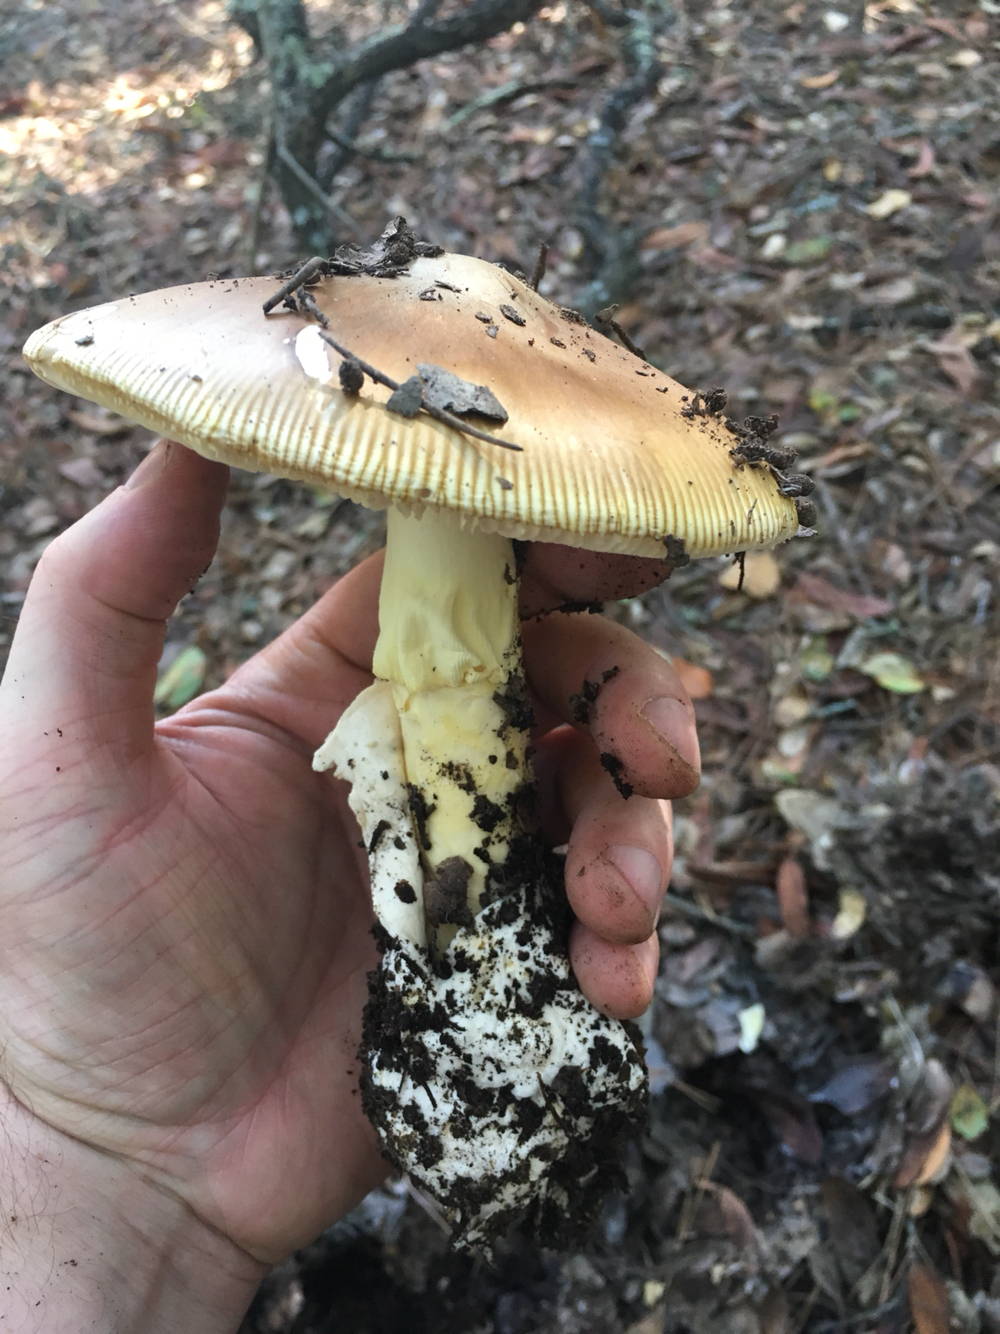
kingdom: Fungi
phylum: Basidiomycota
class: Agaricomycetes
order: Agaricales
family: Amanitaceae
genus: Amanita
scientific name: Amanita calyptroderma
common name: Coccora
